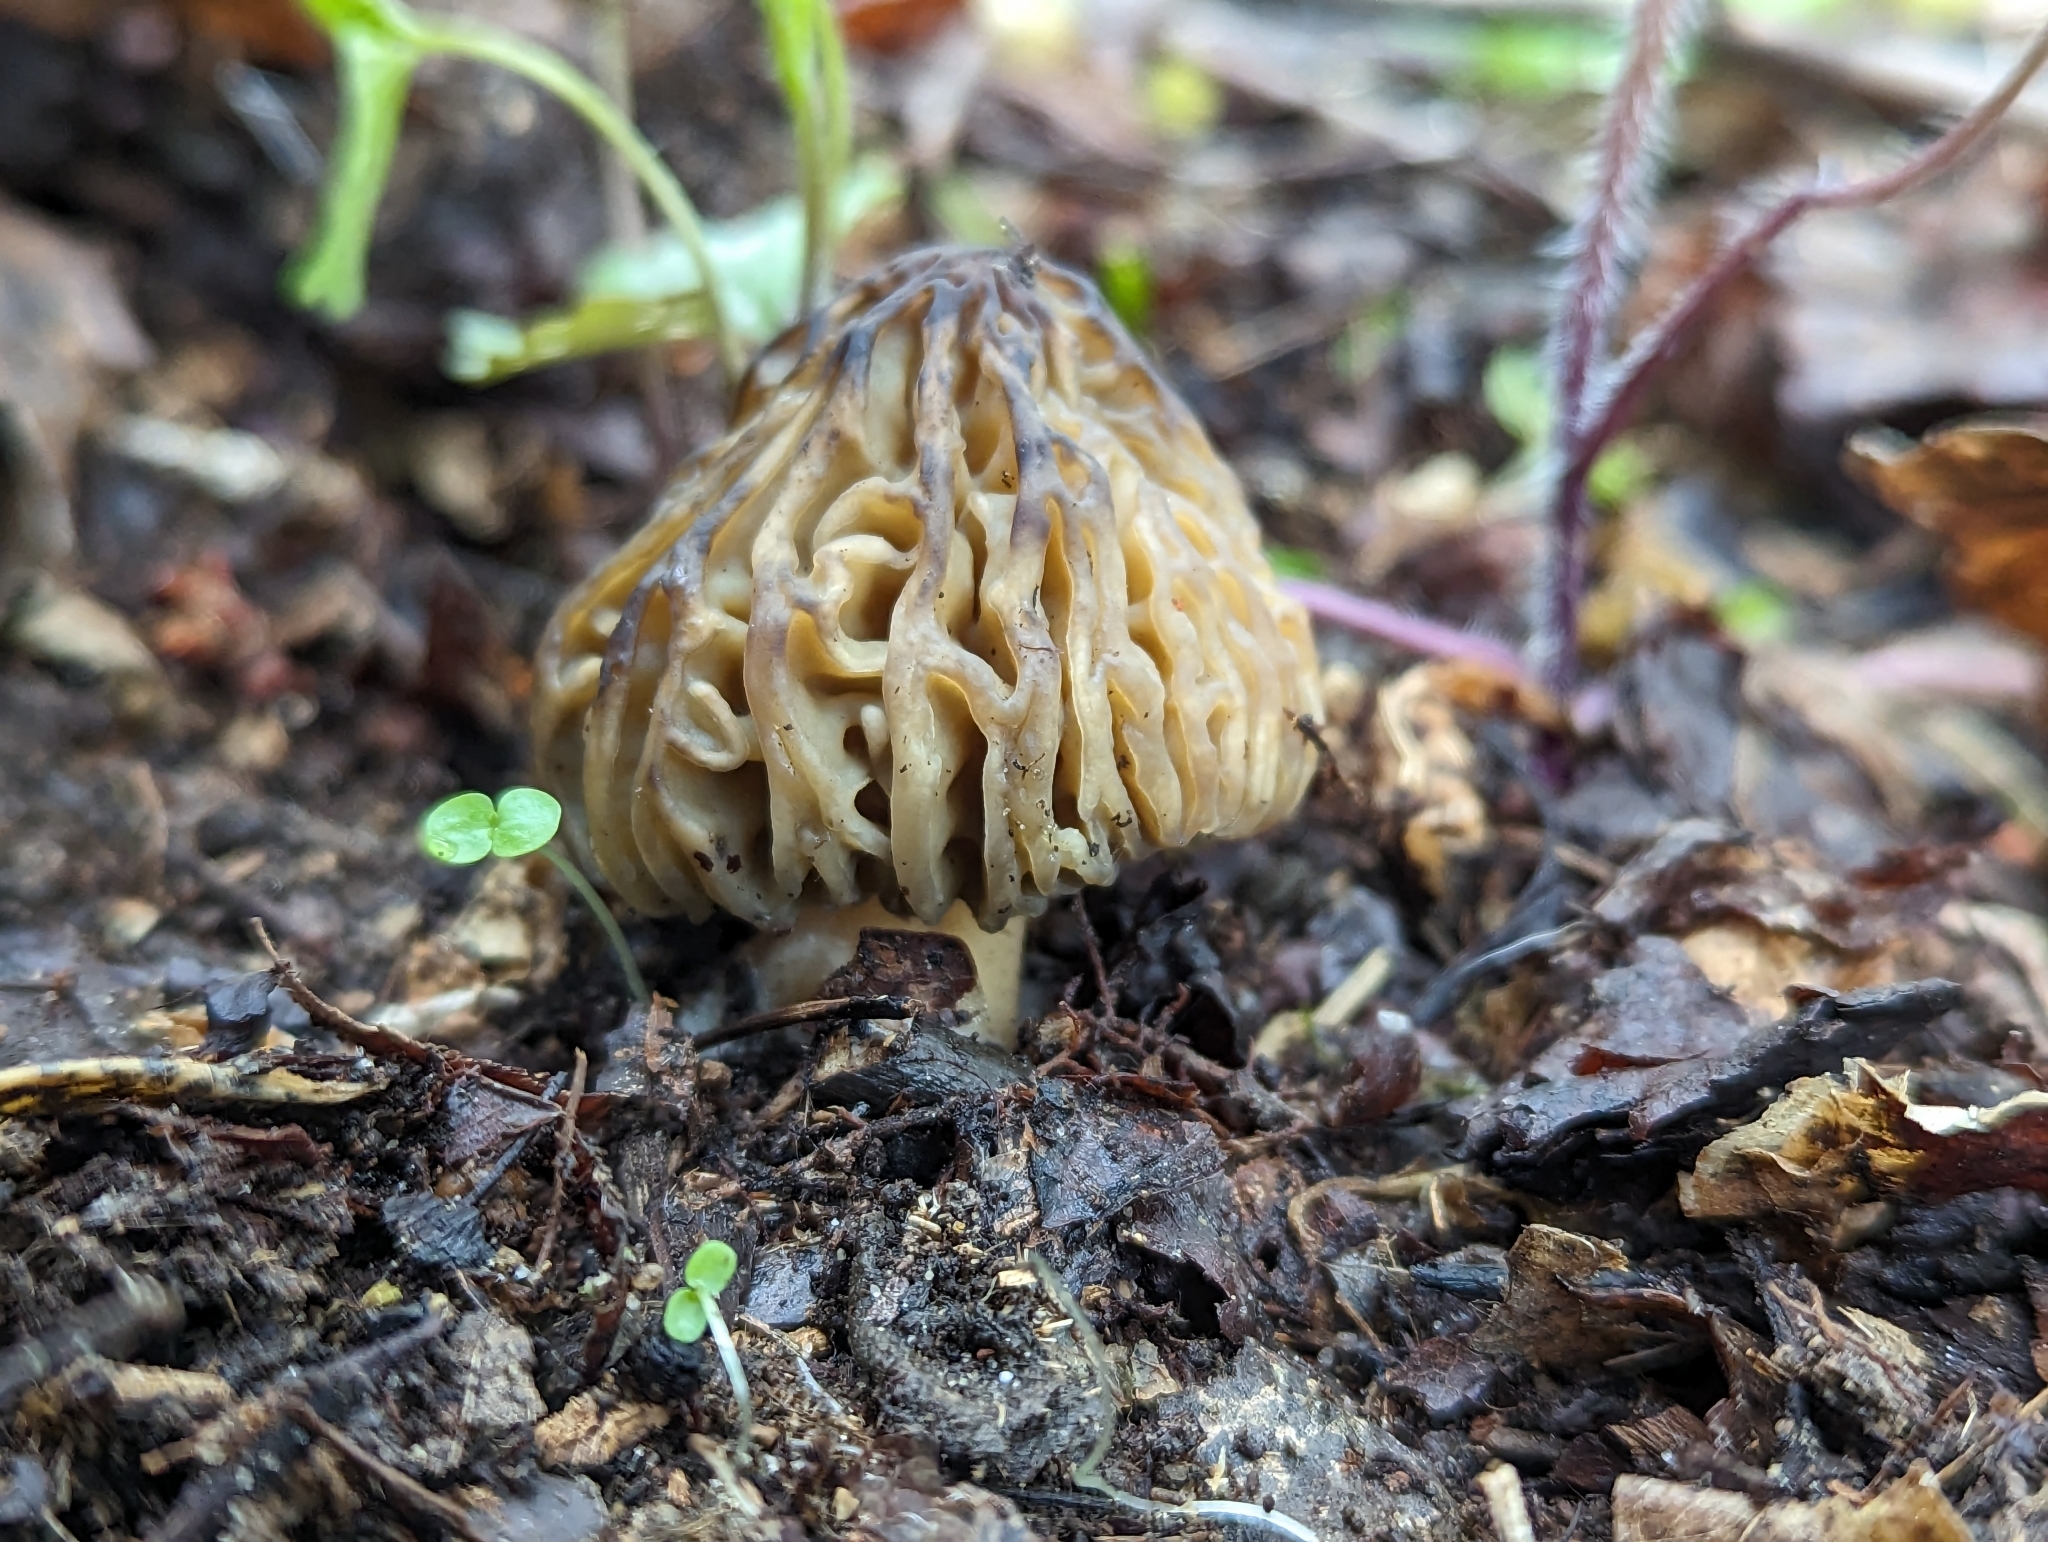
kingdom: Fungi
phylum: Ascomycota
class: Pezizomycetes
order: Pezizales
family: Morchellaceae
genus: Morchella
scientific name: Morchella punctipes
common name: Half-free morel
